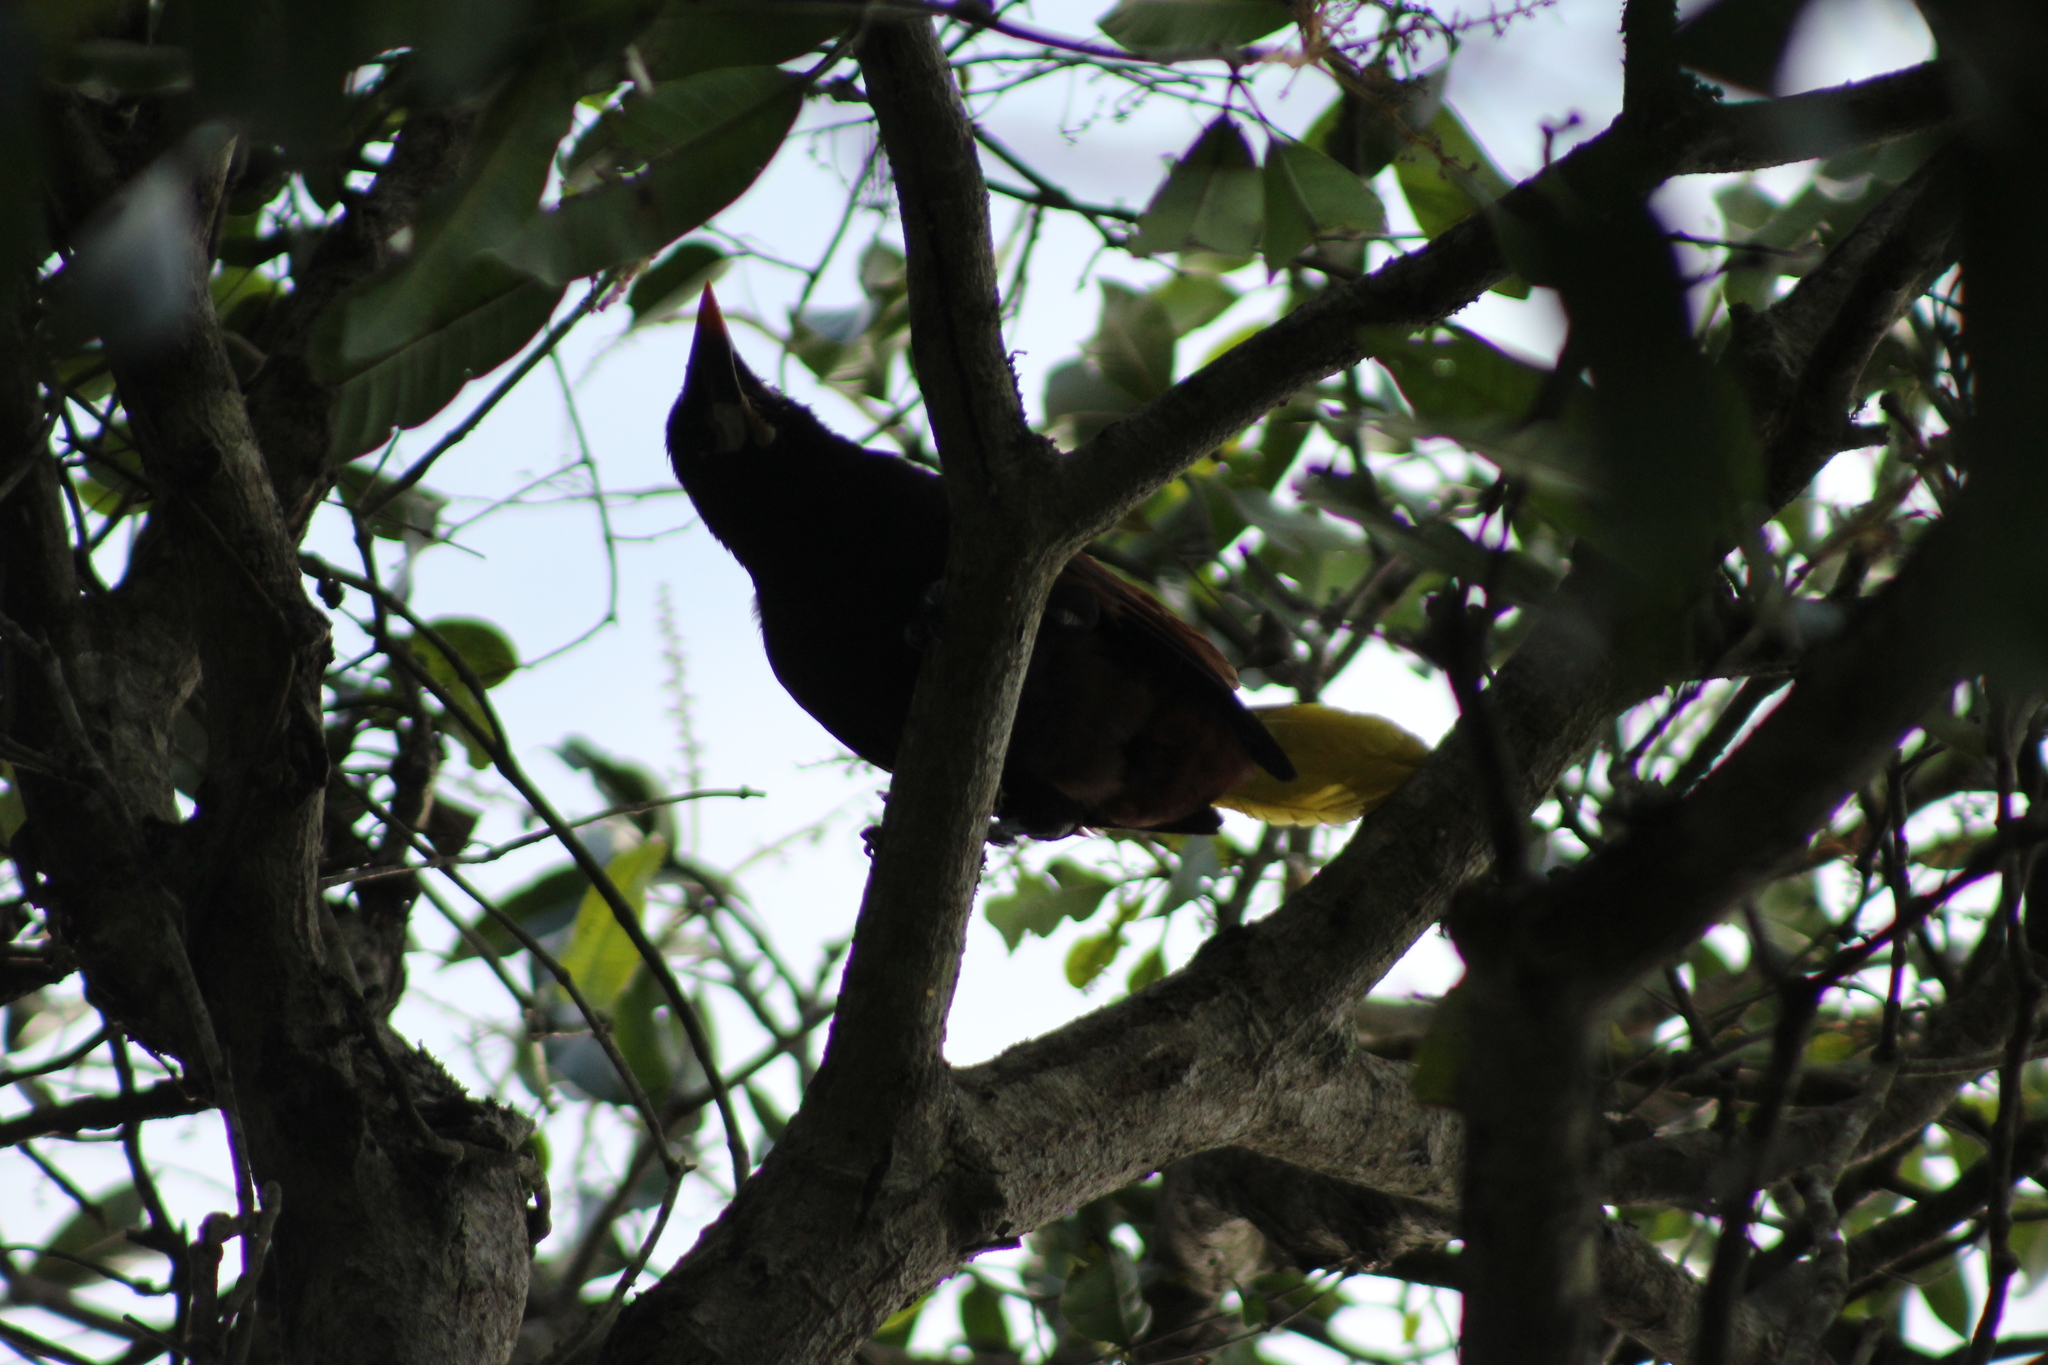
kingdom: Animalia
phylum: Chordata
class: Aves
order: Passeriformes
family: Icteridae
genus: Psarocolius
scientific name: Psarocolius montezuma
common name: Montezuma oropendola
